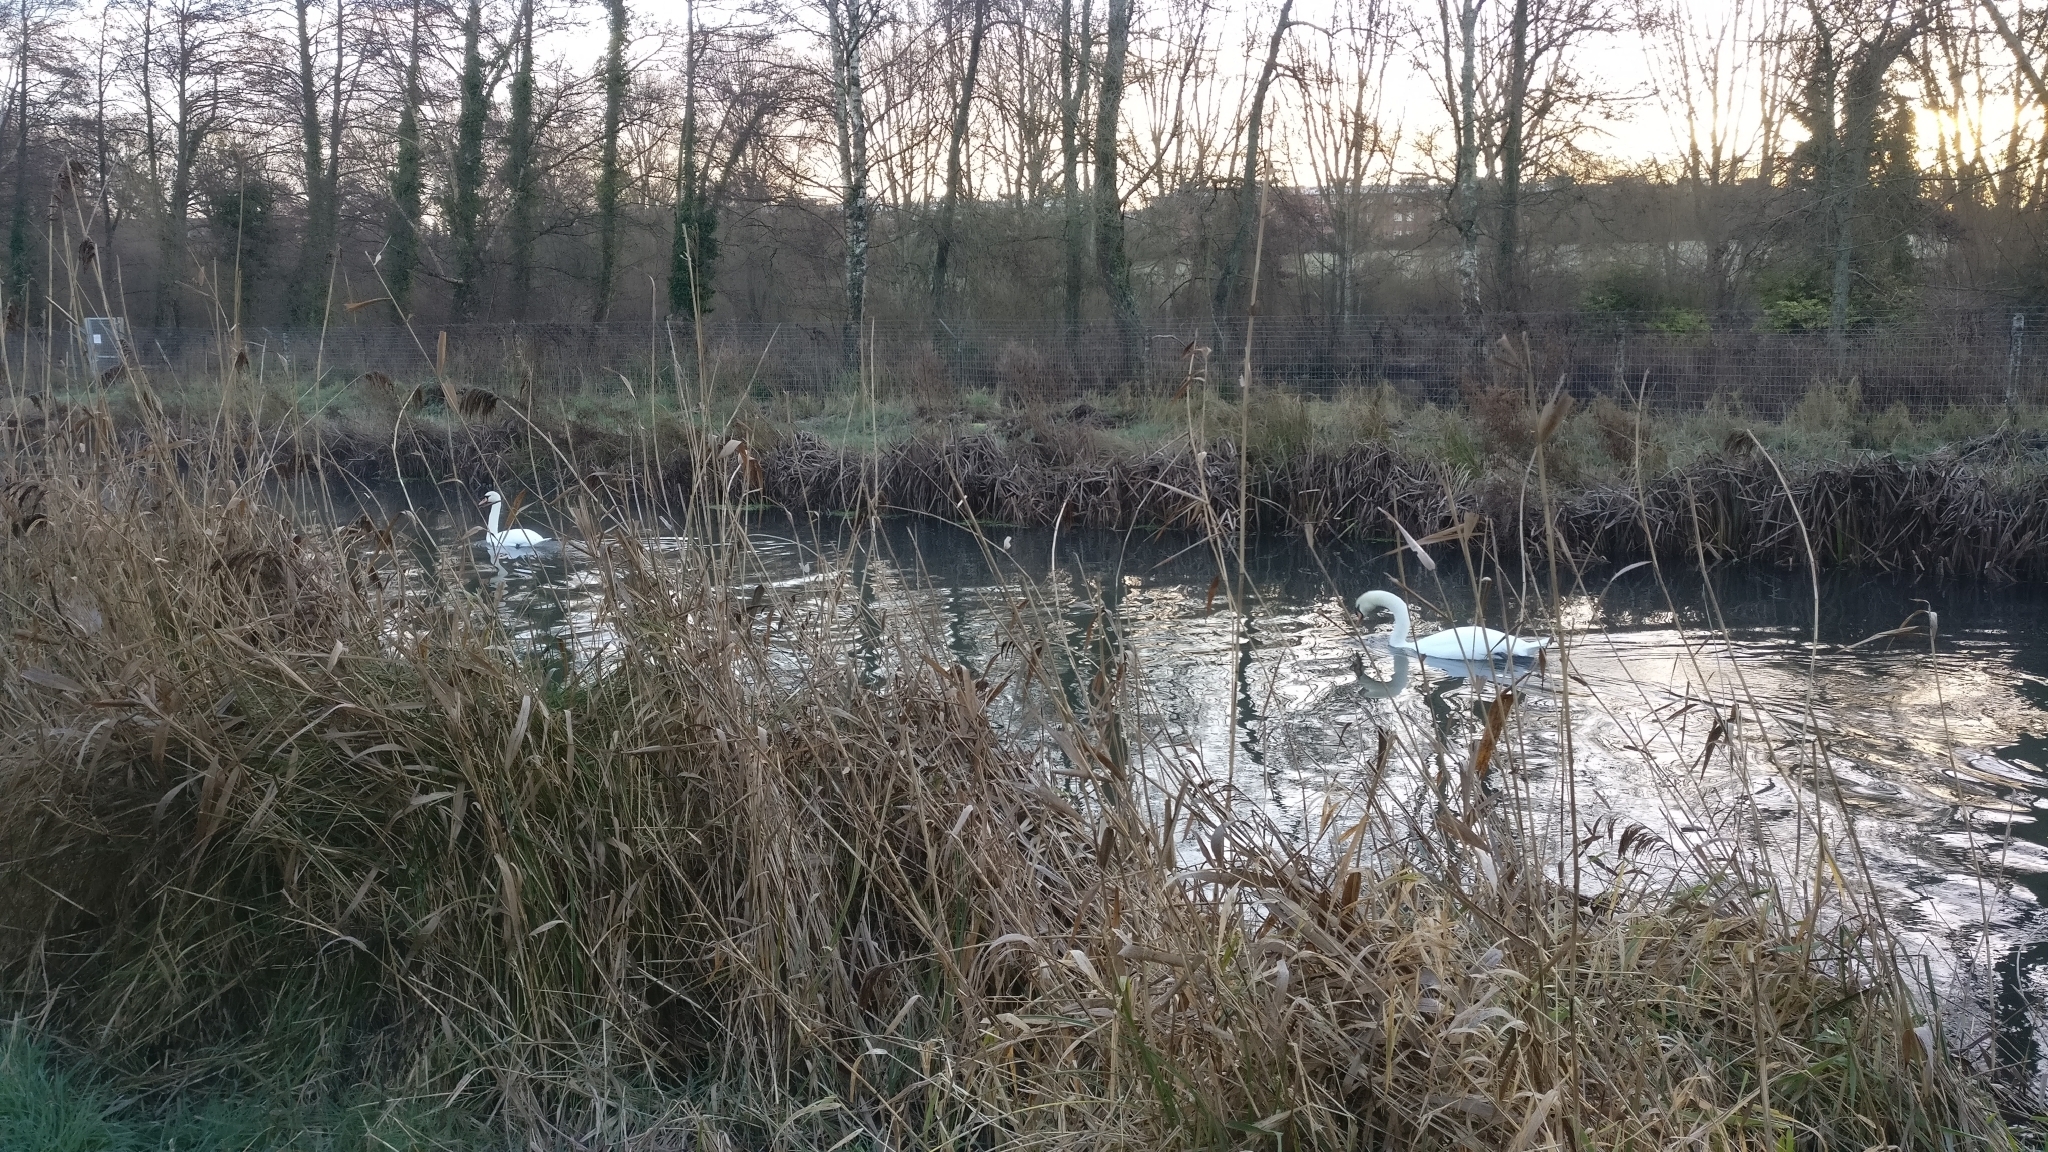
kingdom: Animalia
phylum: Chordata
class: Aves
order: Anseriformes
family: Anatidae
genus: Cygnus
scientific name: Cygnus olor
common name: Mute swan
